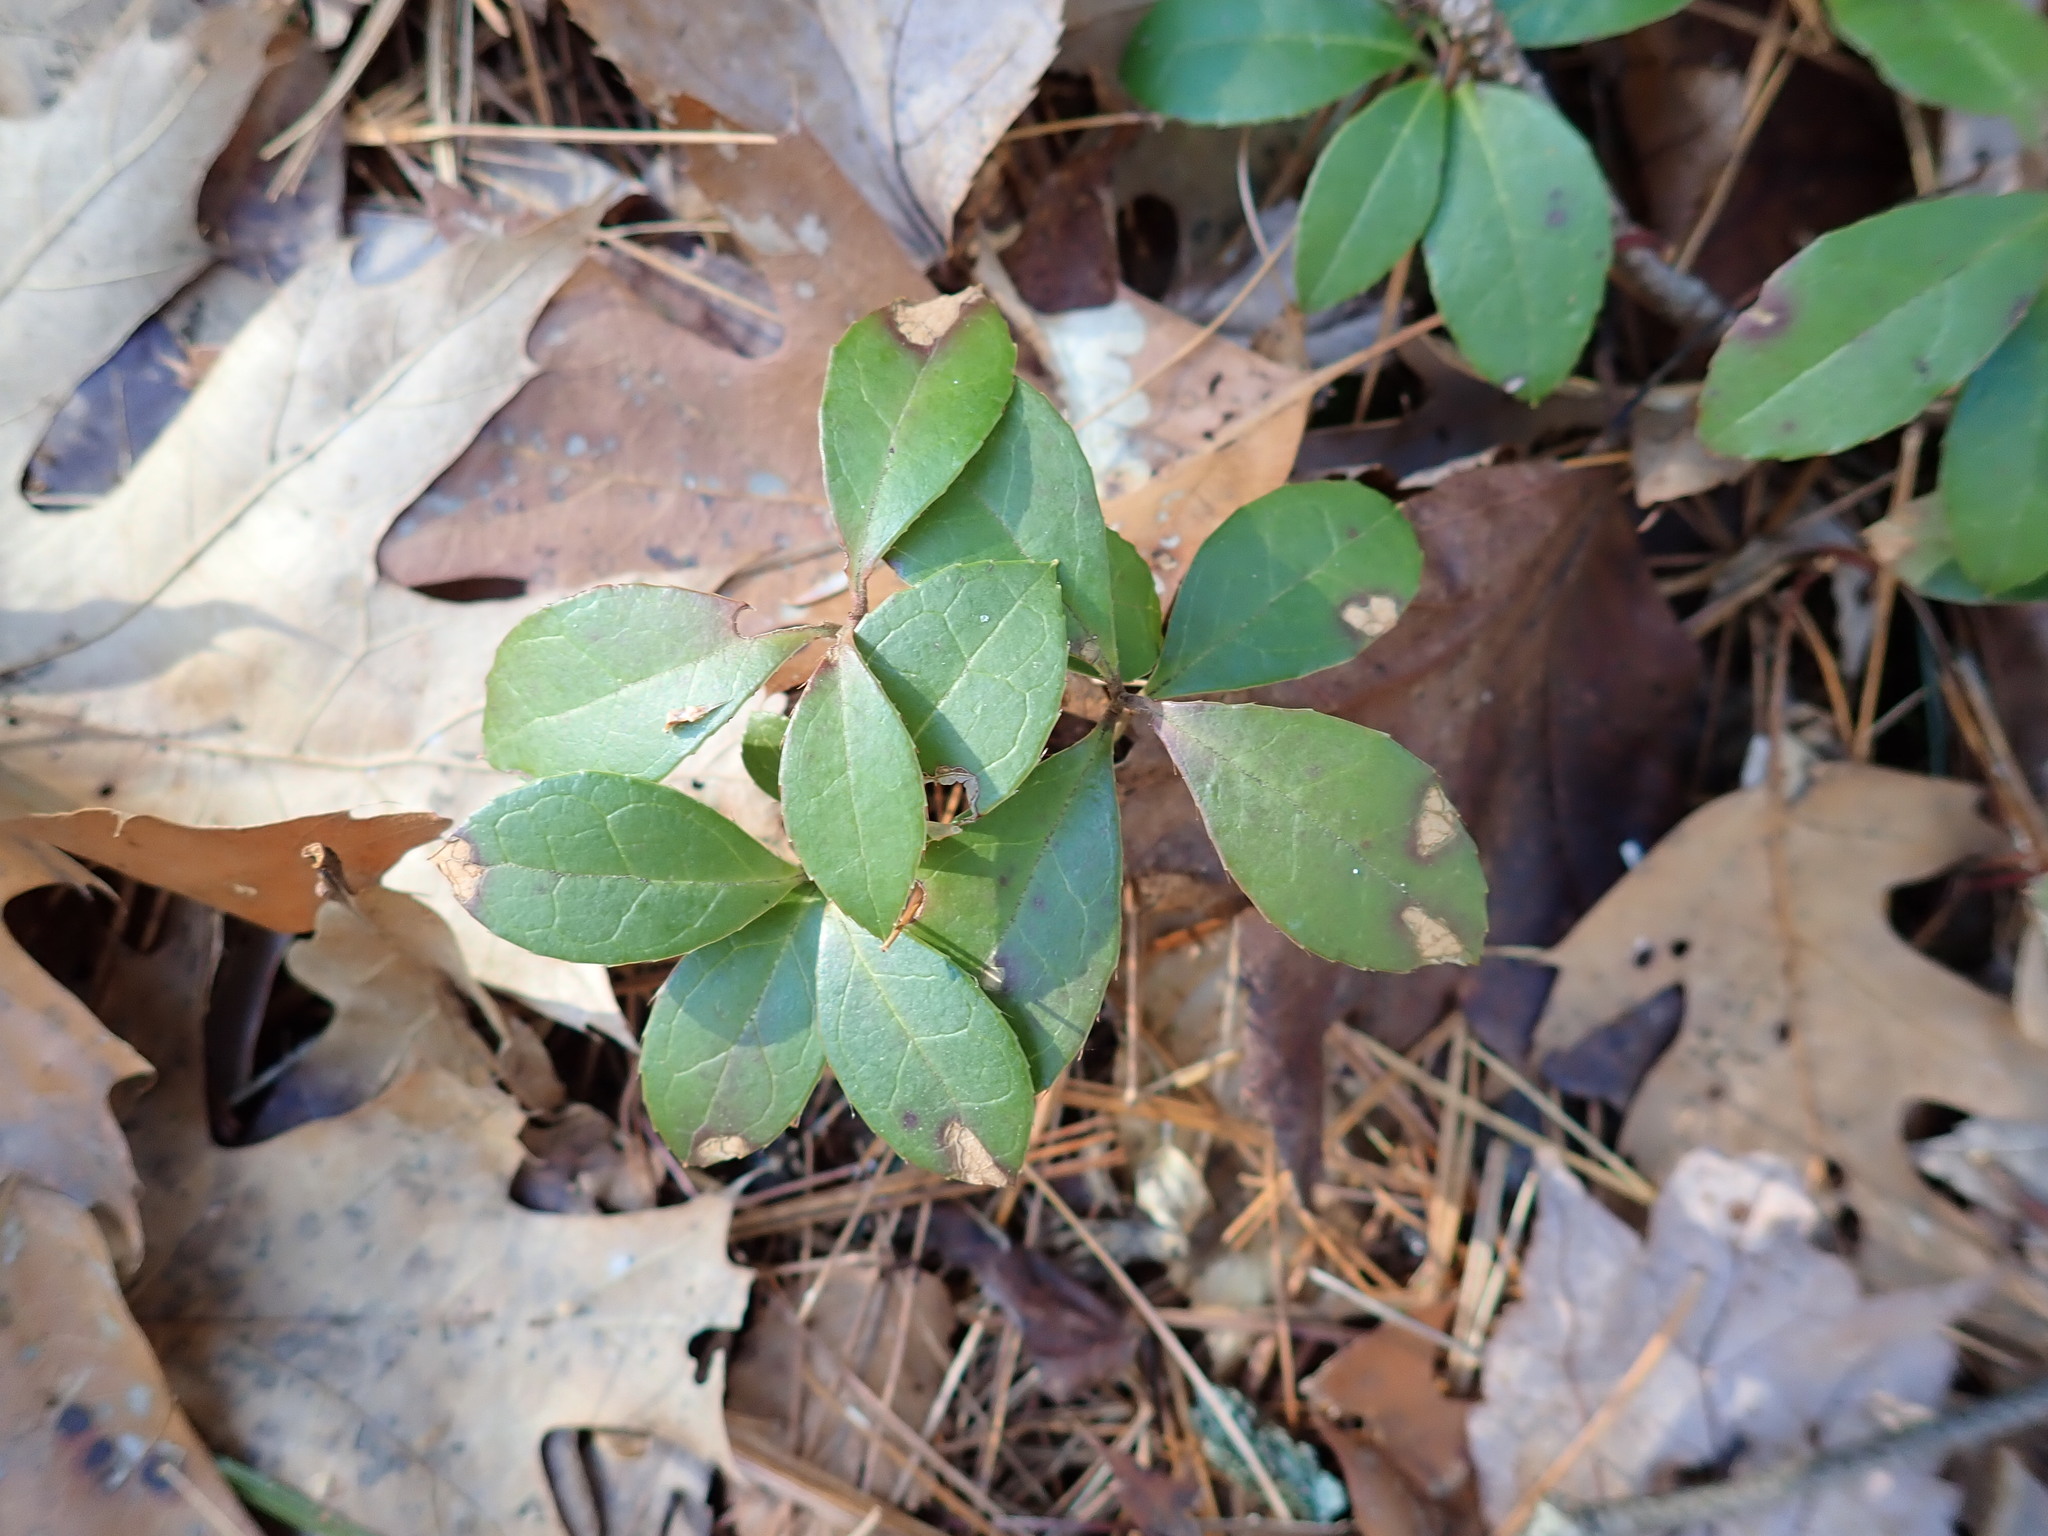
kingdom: Plantae
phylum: Tracheophyta
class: Magnoliopsida
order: Ericales
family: Ericaceae
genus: Gaultheria
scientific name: Gaultheria procumbens
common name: Checkerberry
